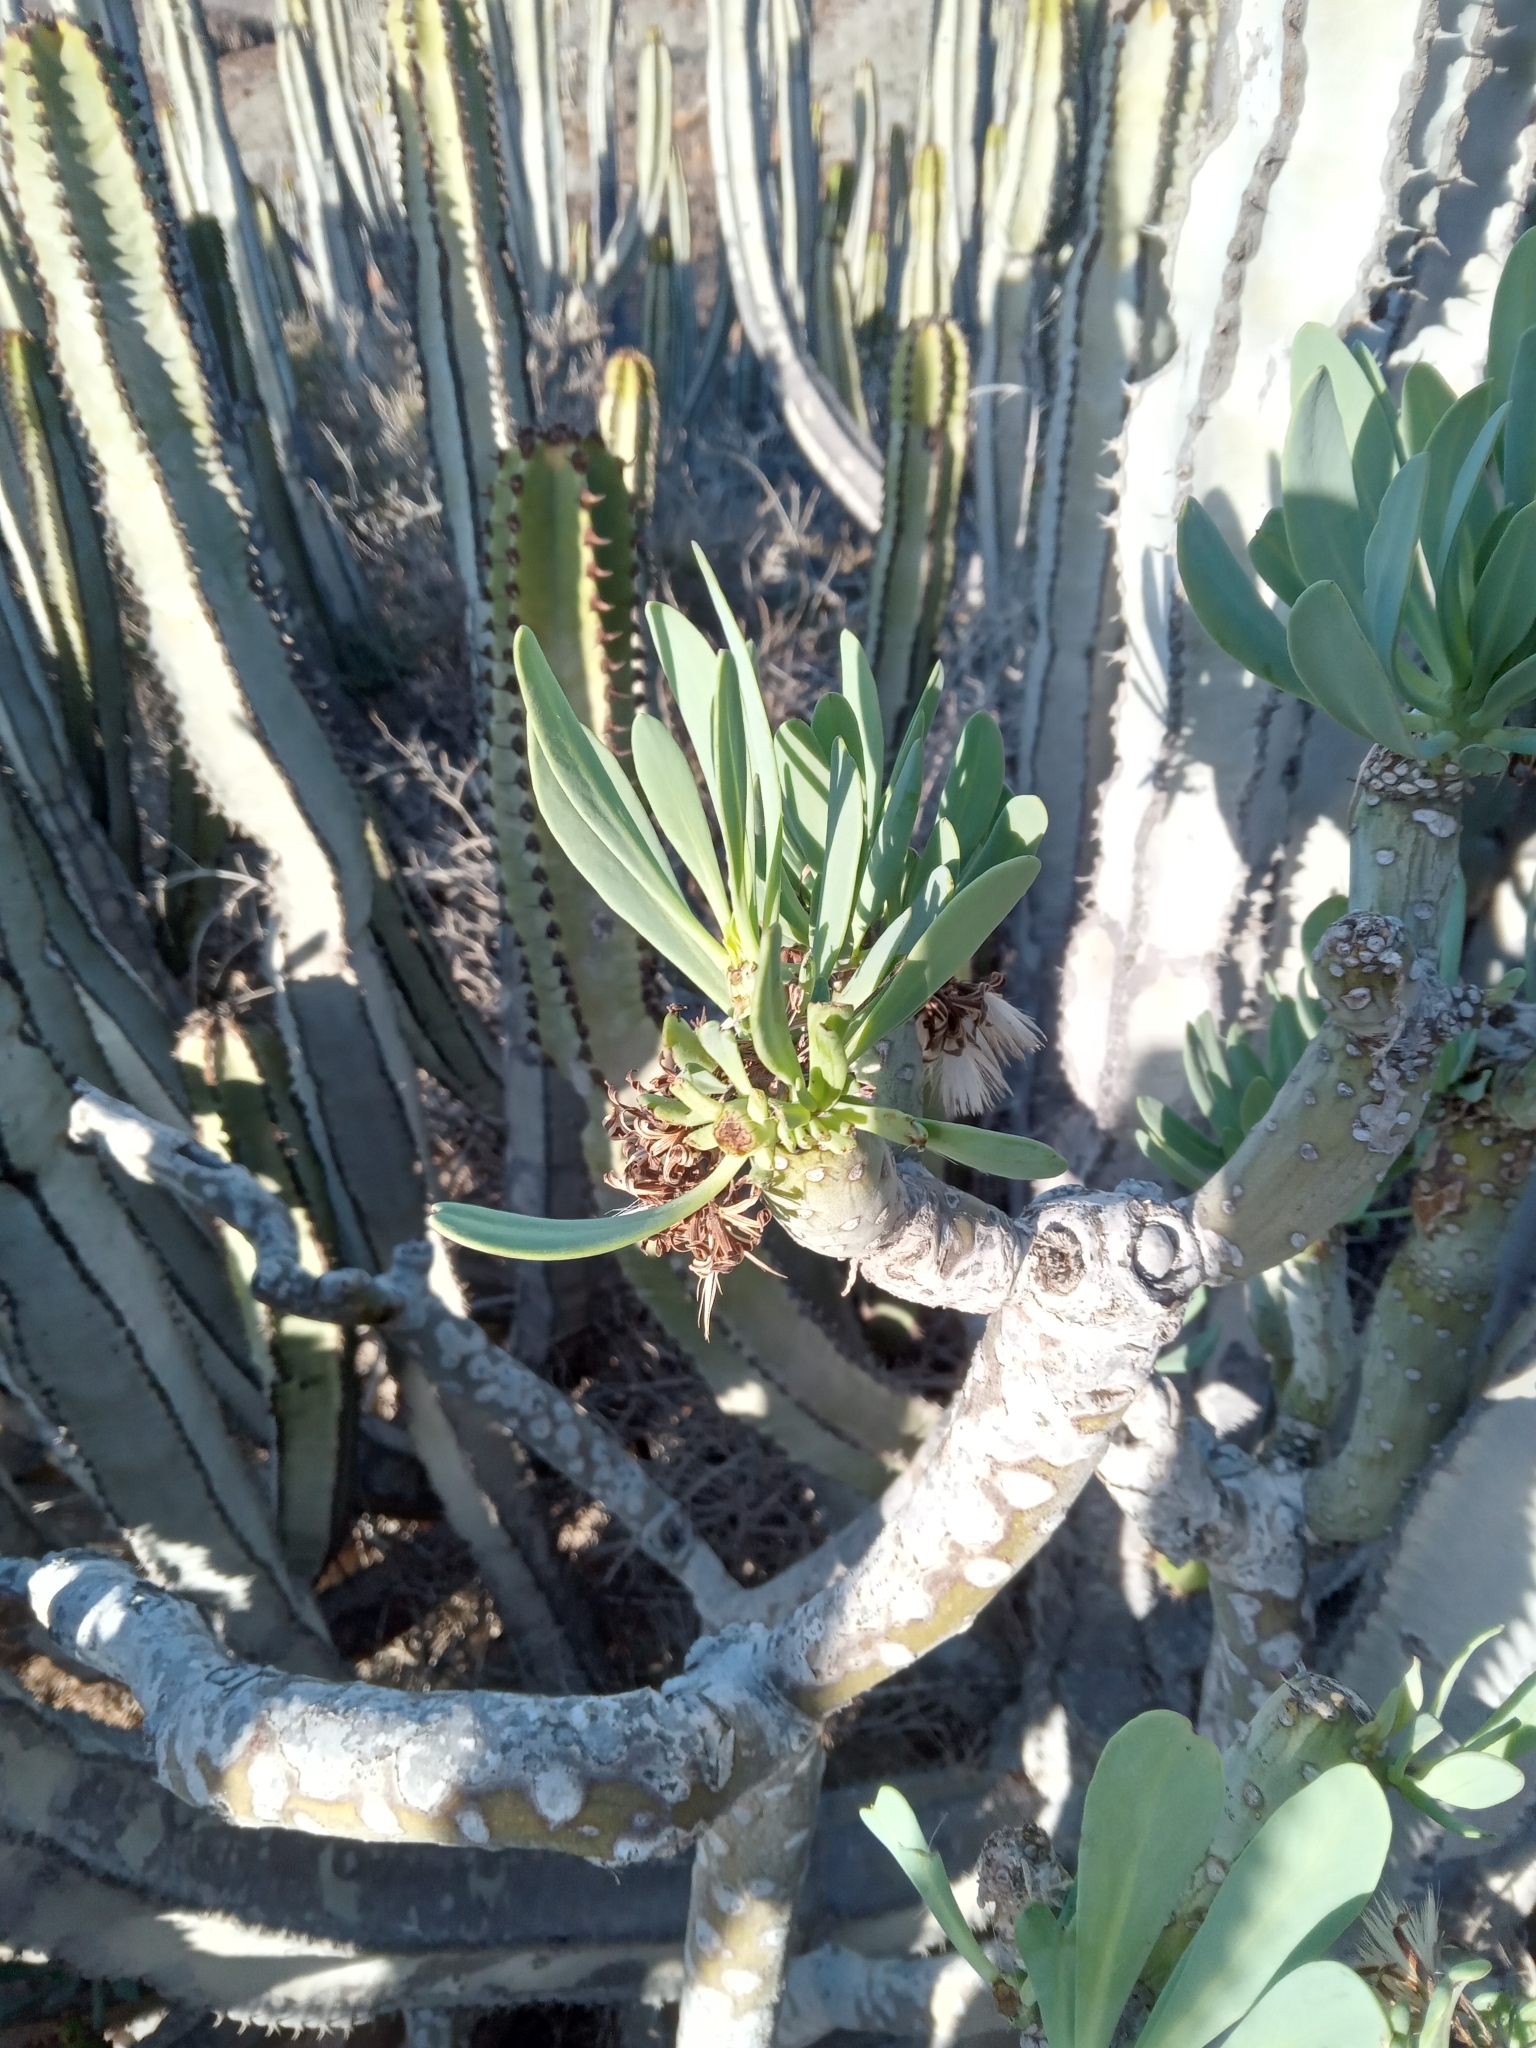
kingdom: Plantae
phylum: Tracheophyta
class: Magnoliopsida
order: Asterales
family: Asteraceae
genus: Kleinia
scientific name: Kleinia neriifolia
